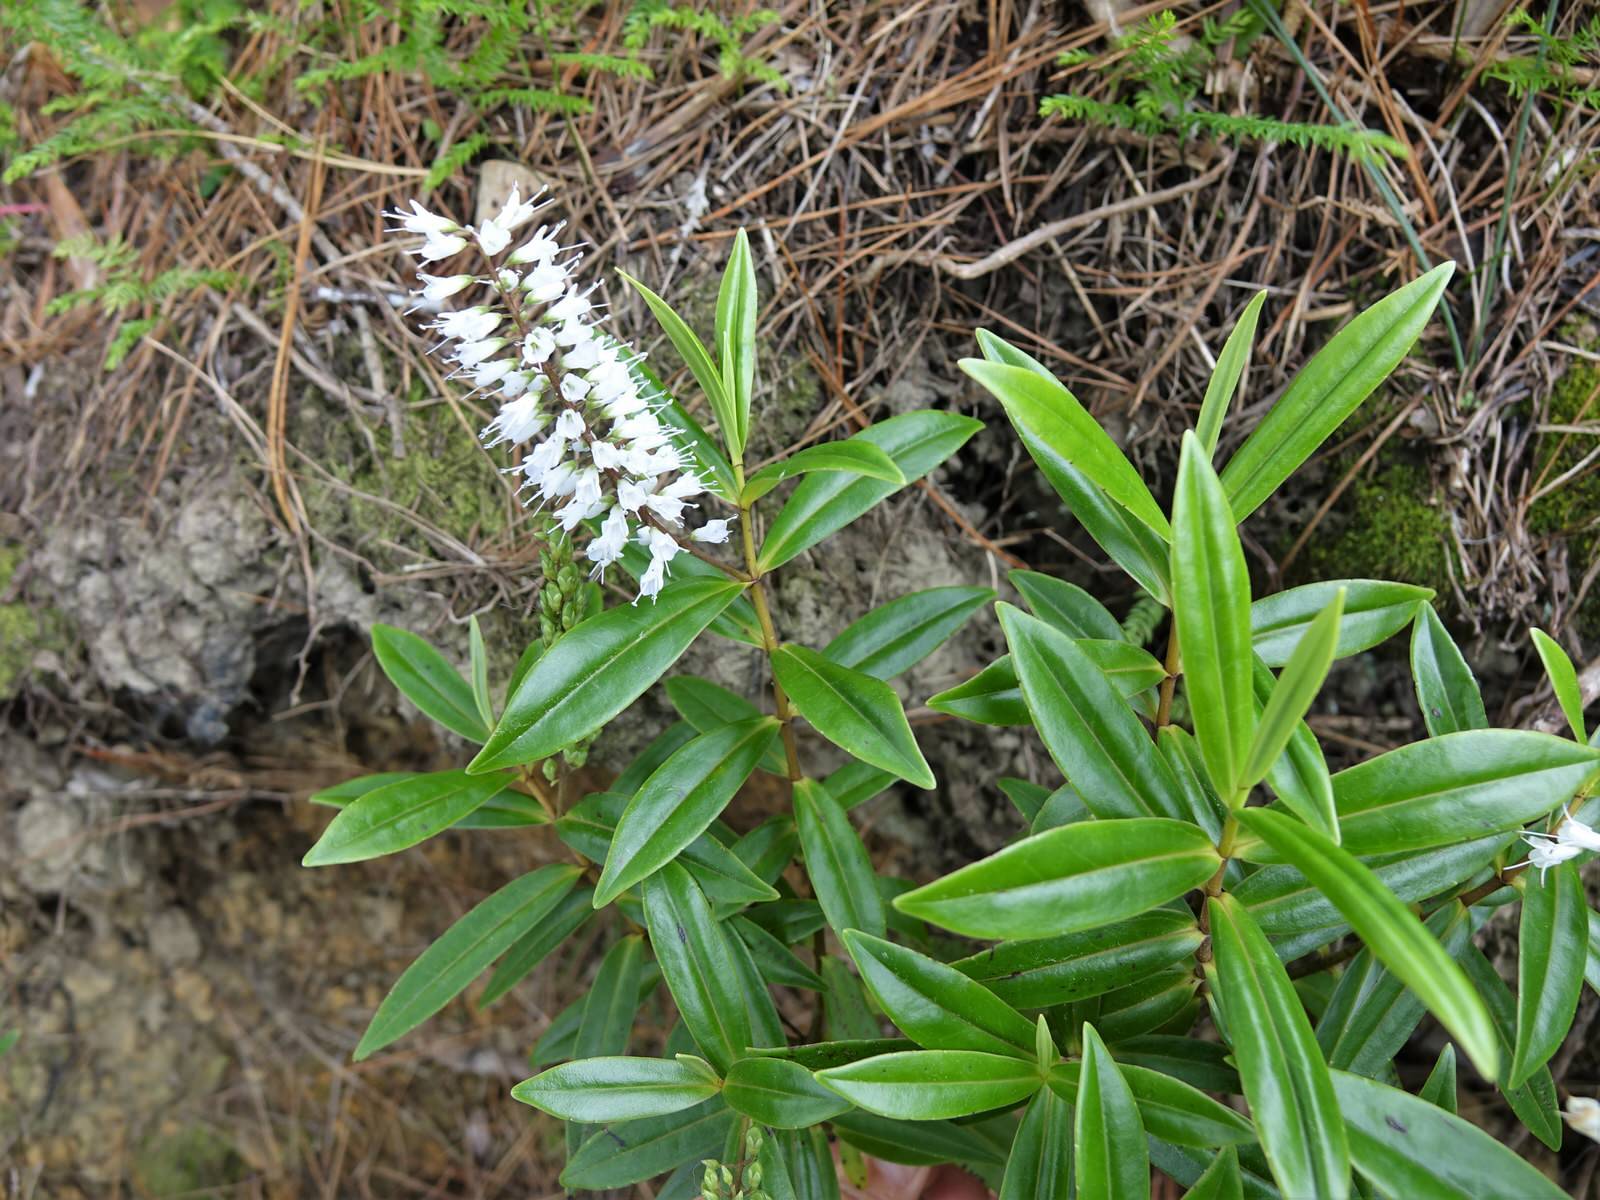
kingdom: Plantae
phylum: Tracheophyta
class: Magnoliopsida
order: Lamiales
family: Plantaginaceae
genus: Veronica
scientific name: Veronica macrocarpa
